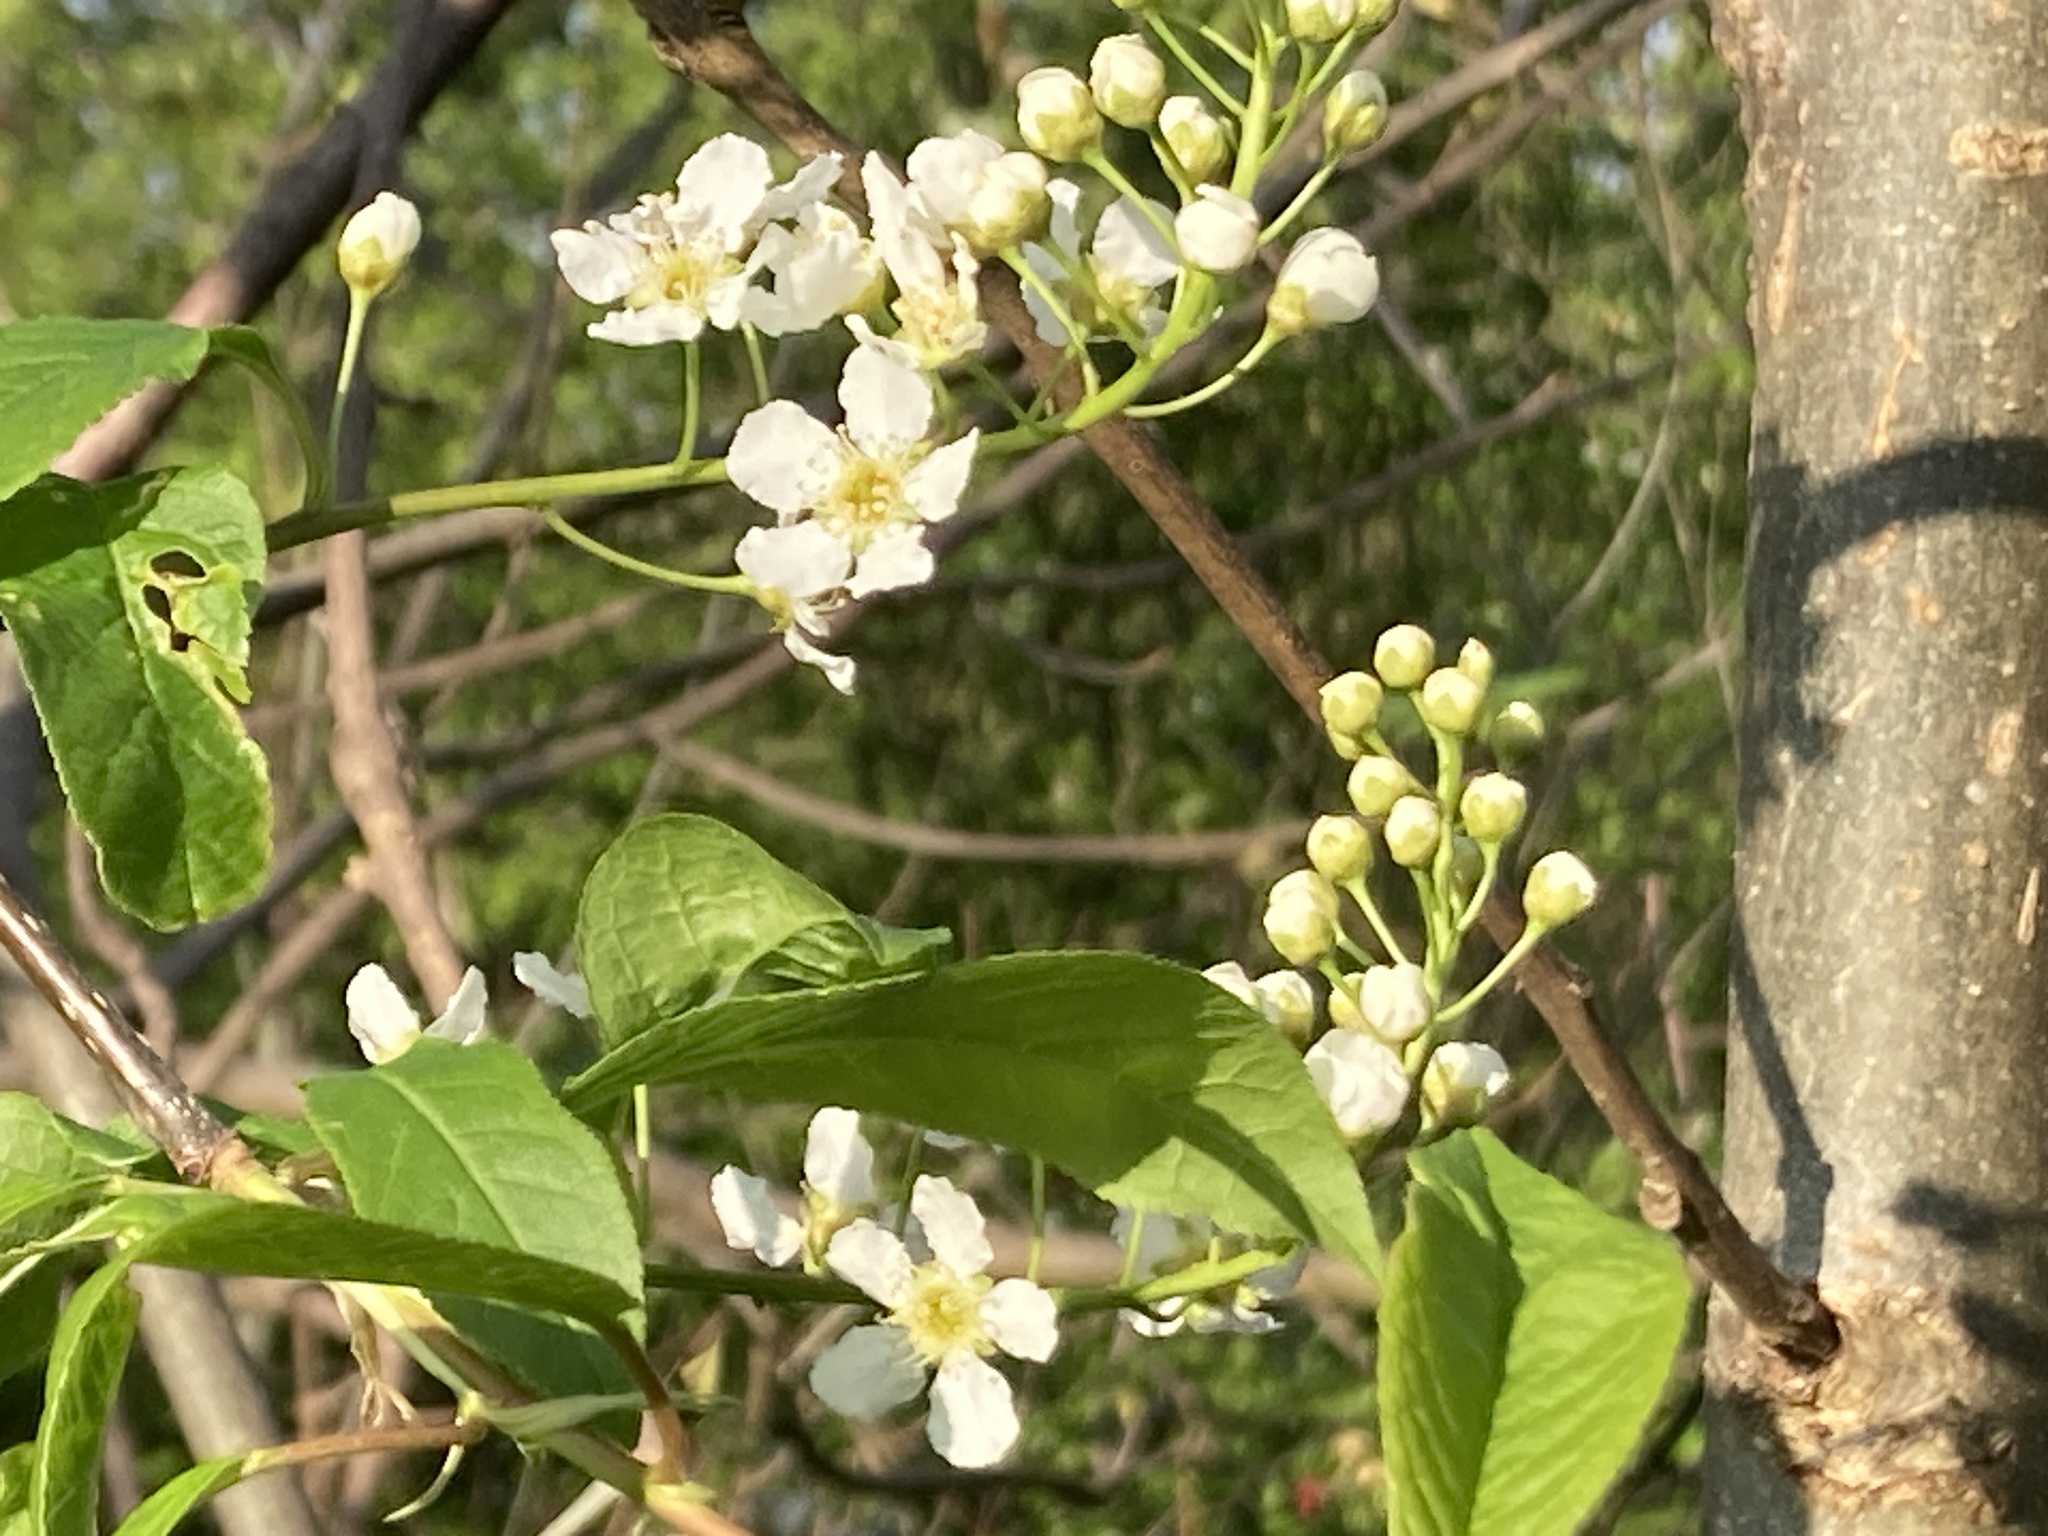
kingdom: Plantae
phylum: Tracheophyta
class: Magnoliopsida
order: Rosales
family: Rosaceae
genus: Prunus
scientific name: Prunus padus
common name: Bird cherry
